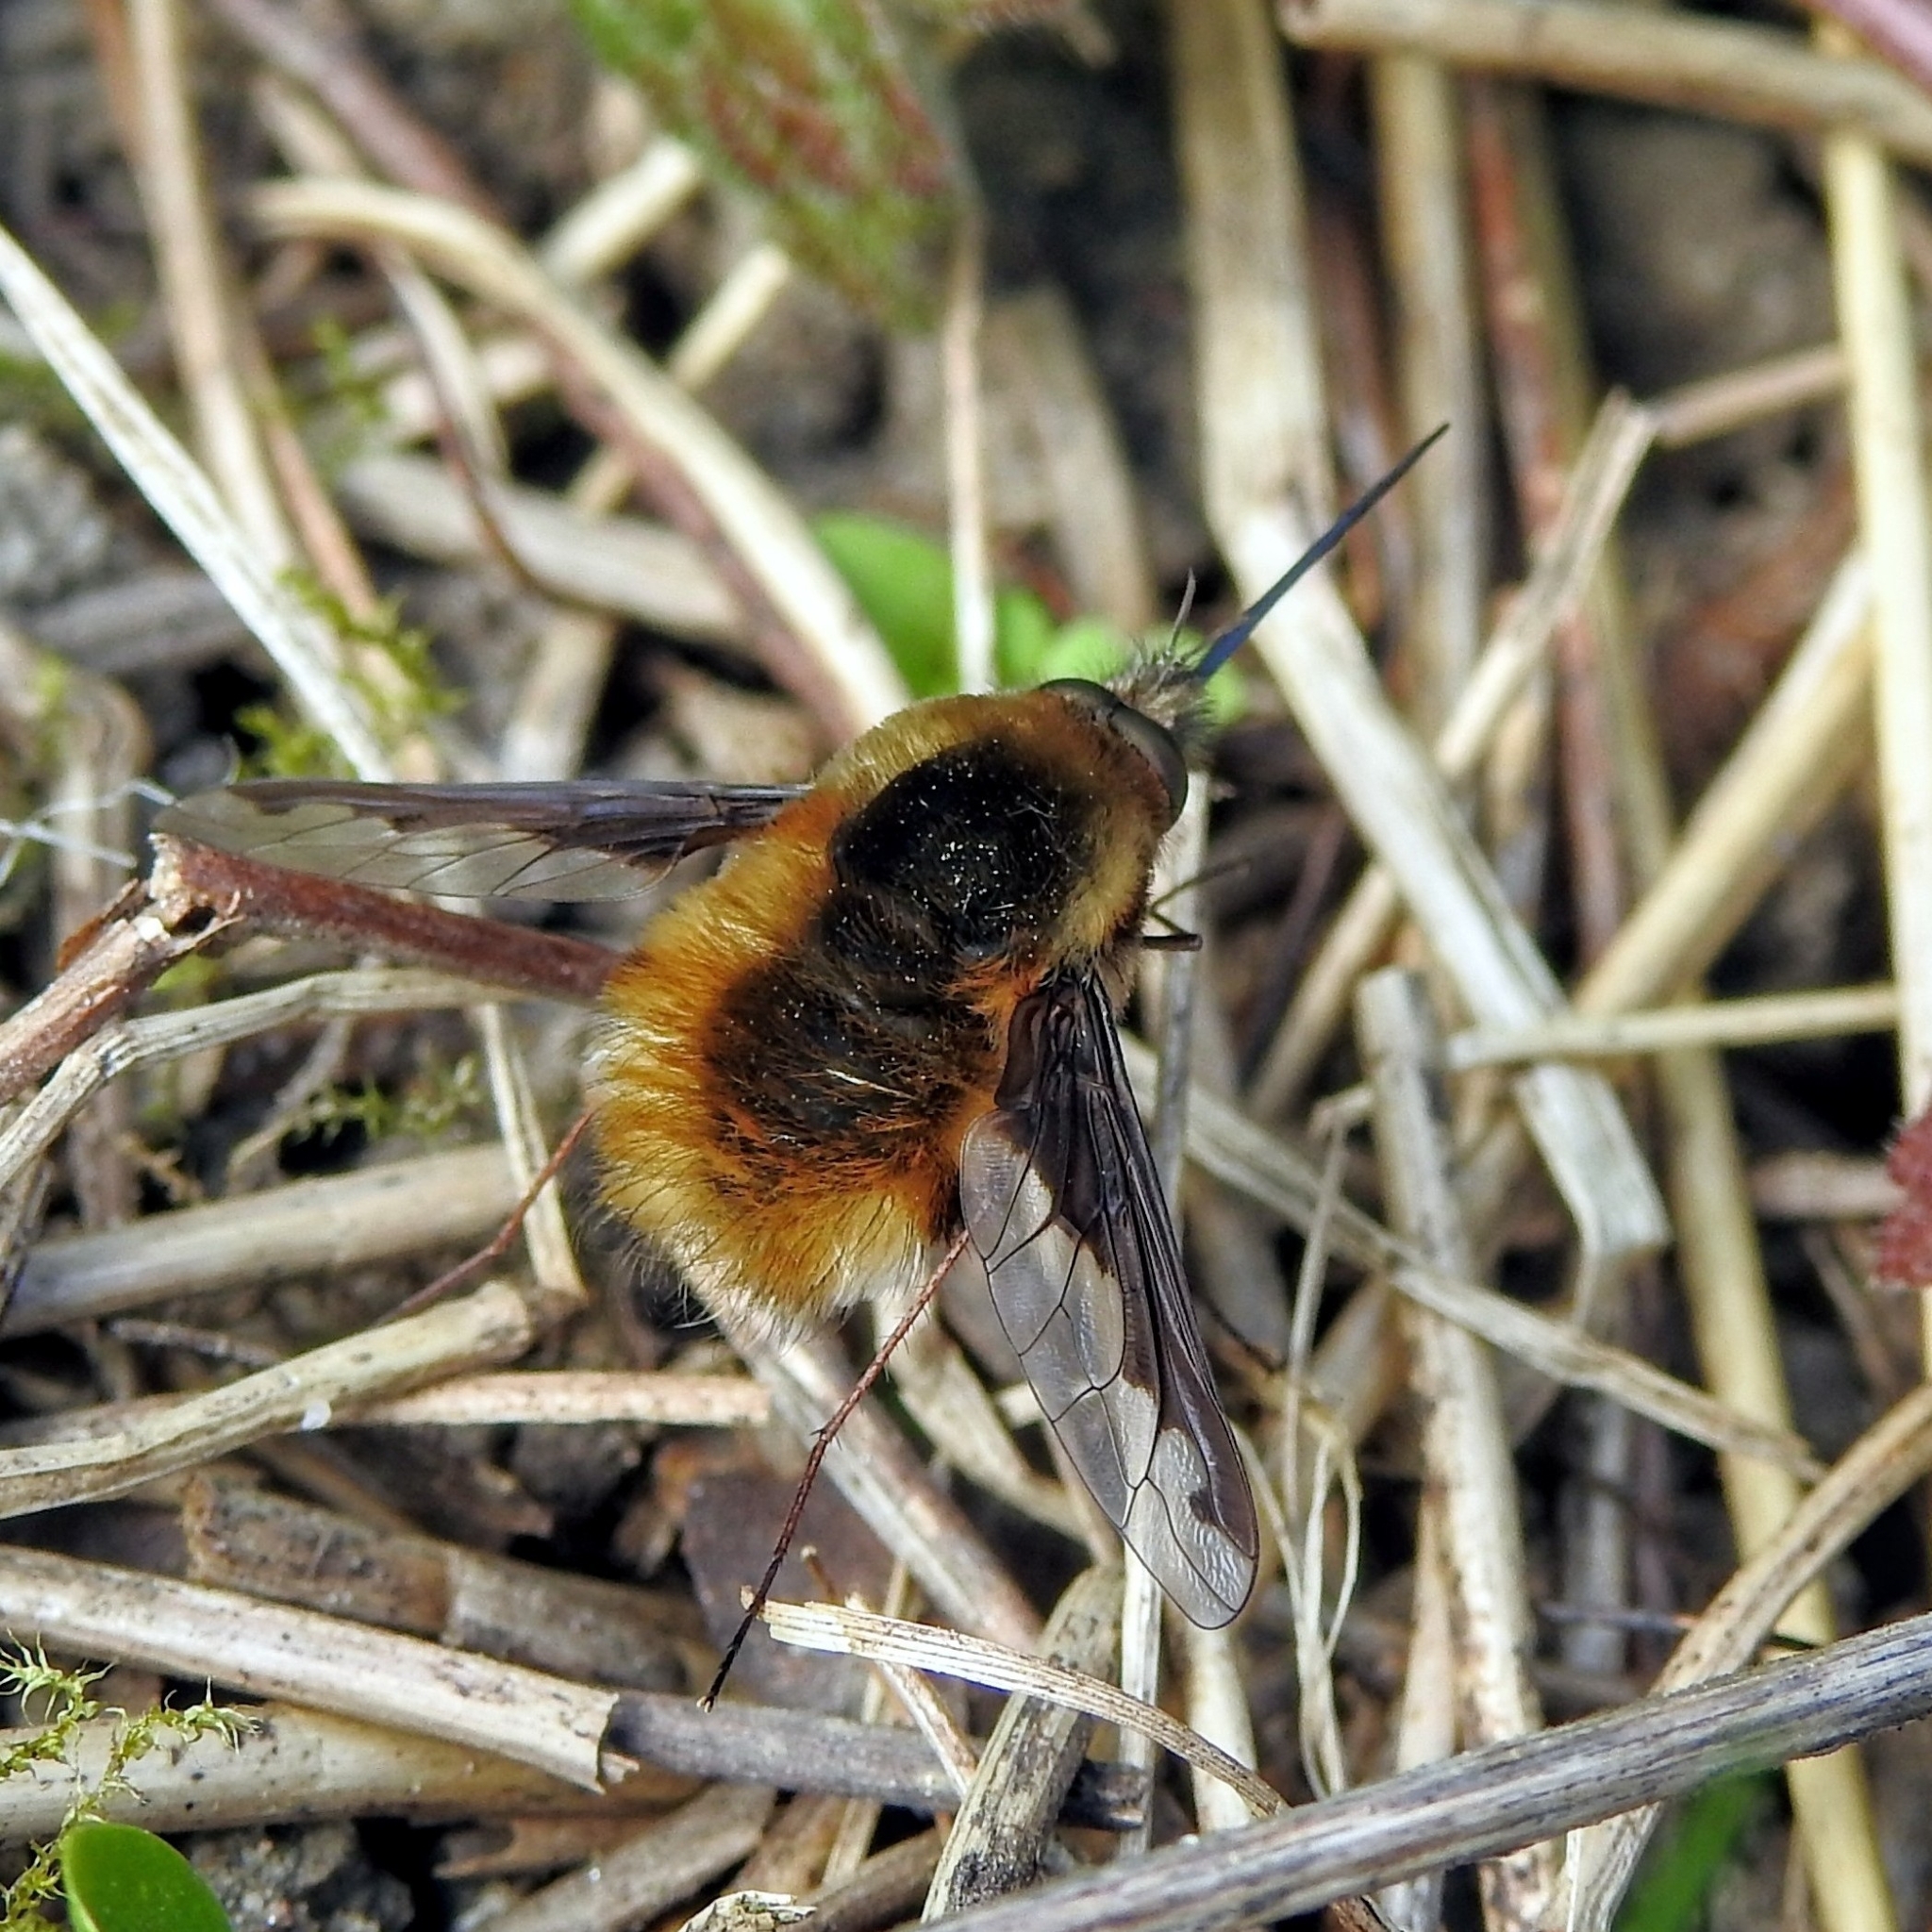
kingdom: Animalia
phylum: Arthropoda
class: Insecta
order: Diptera
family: Bombyliidae
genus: Bombylius
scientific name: Bombylius major
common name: Bee fly
